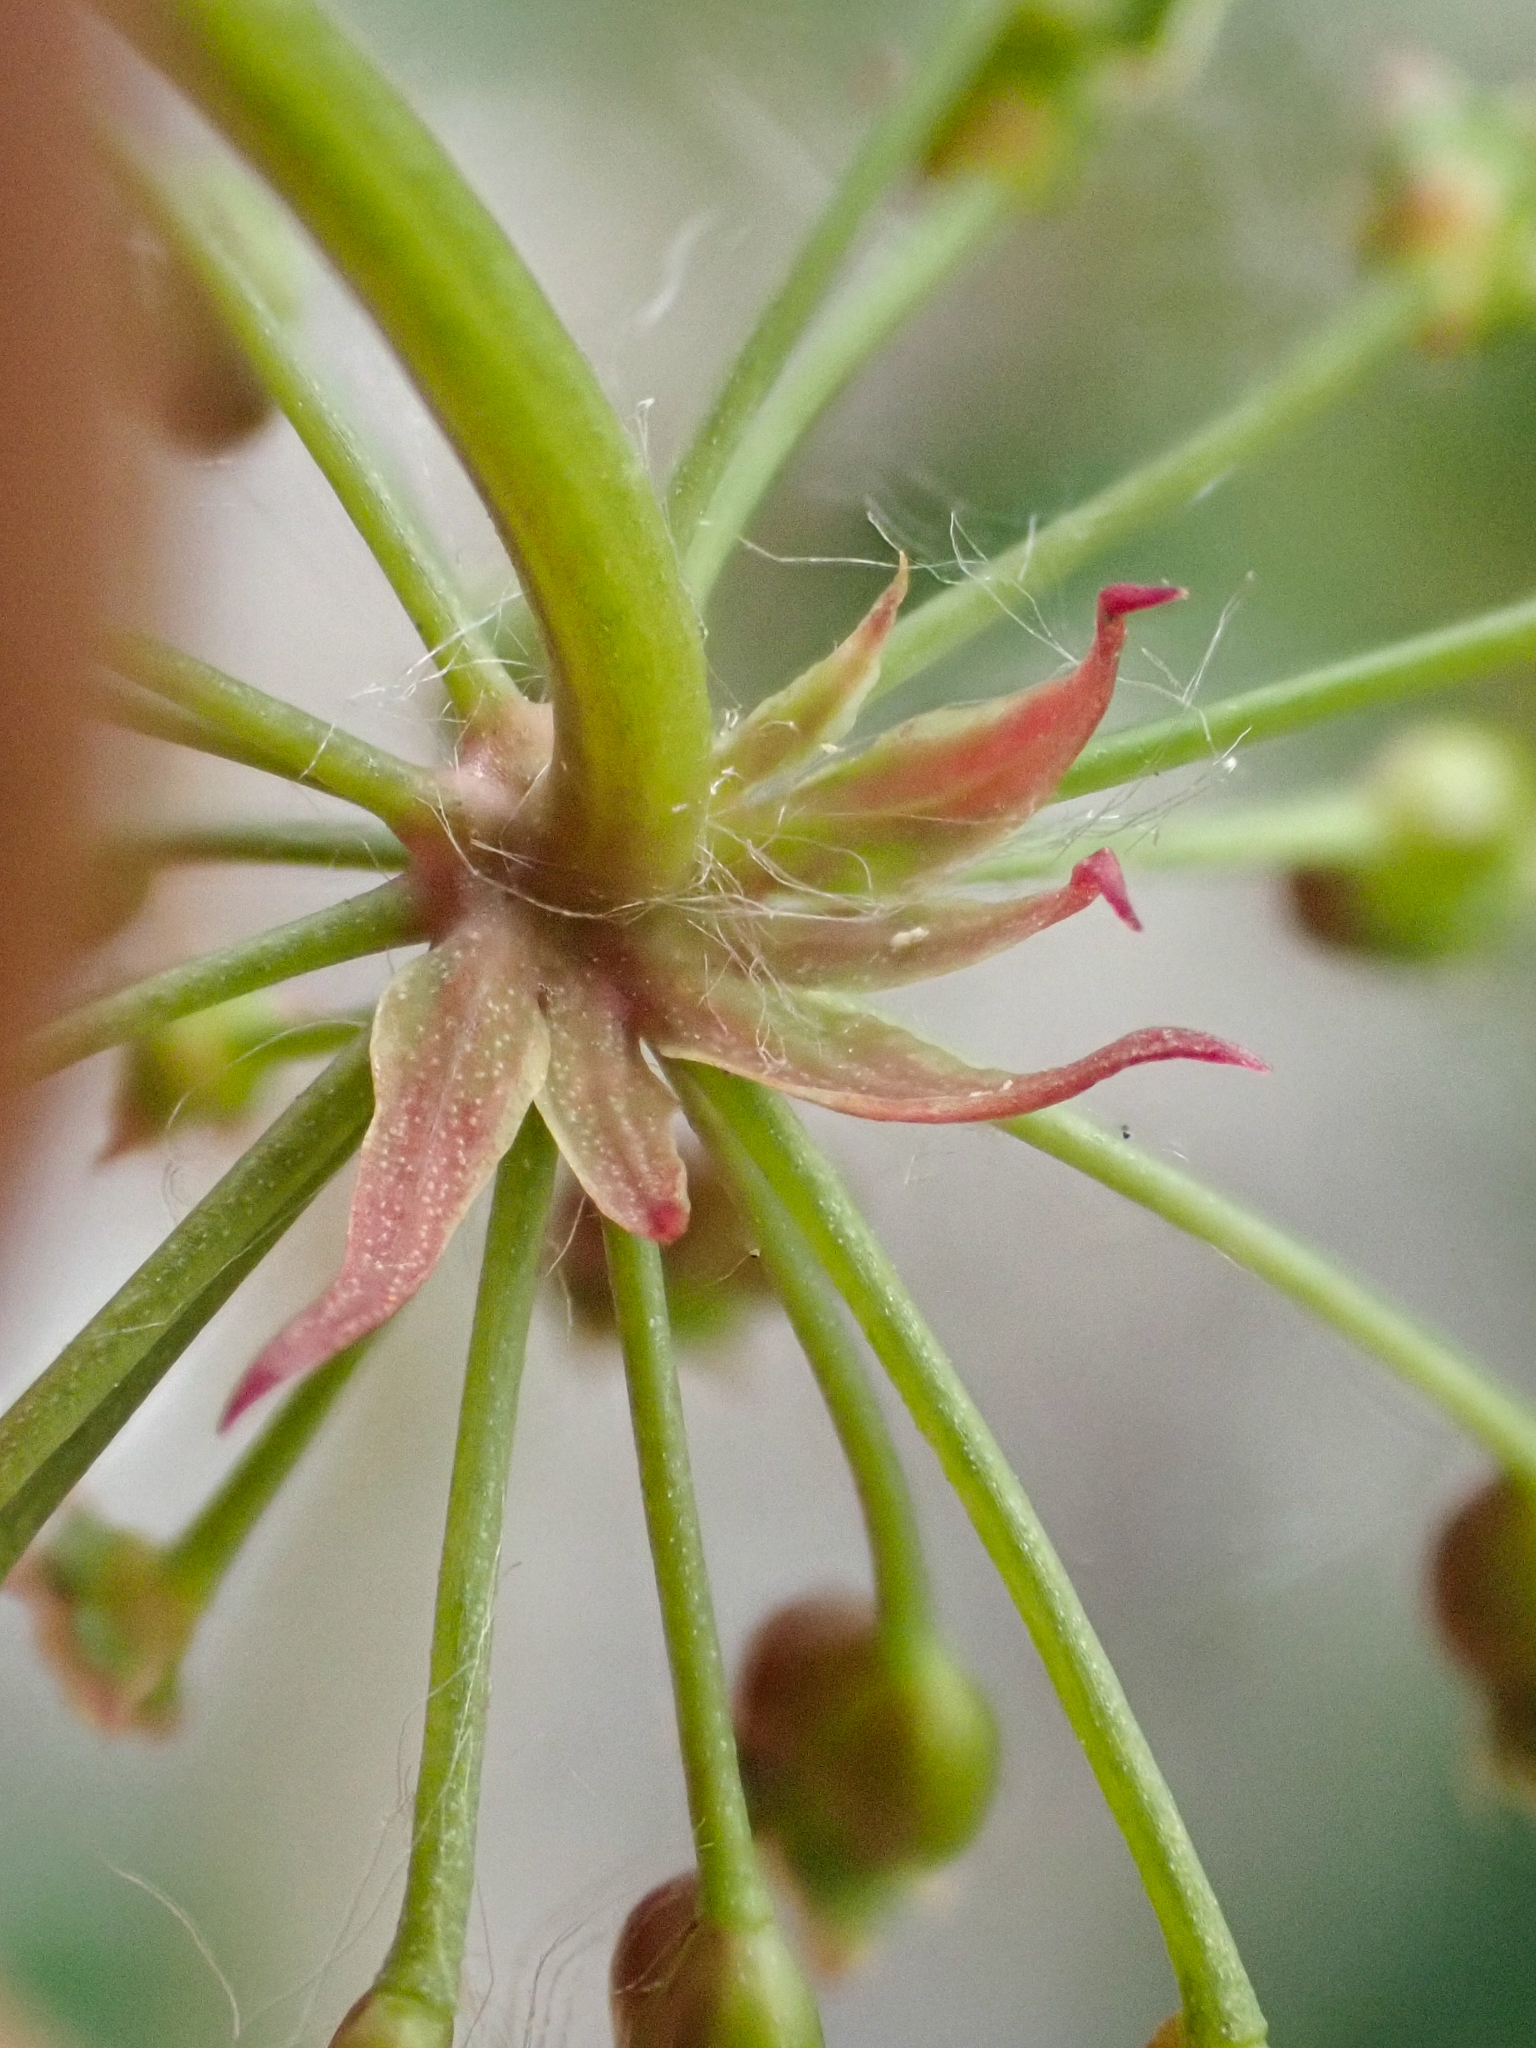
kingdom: Plantae
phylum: Tracheophyta
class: Magnoliopsida
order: Apiales
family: Apiaceae
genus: Cicuta
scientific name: Cicuta douglasii
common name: Western water-hemlock
